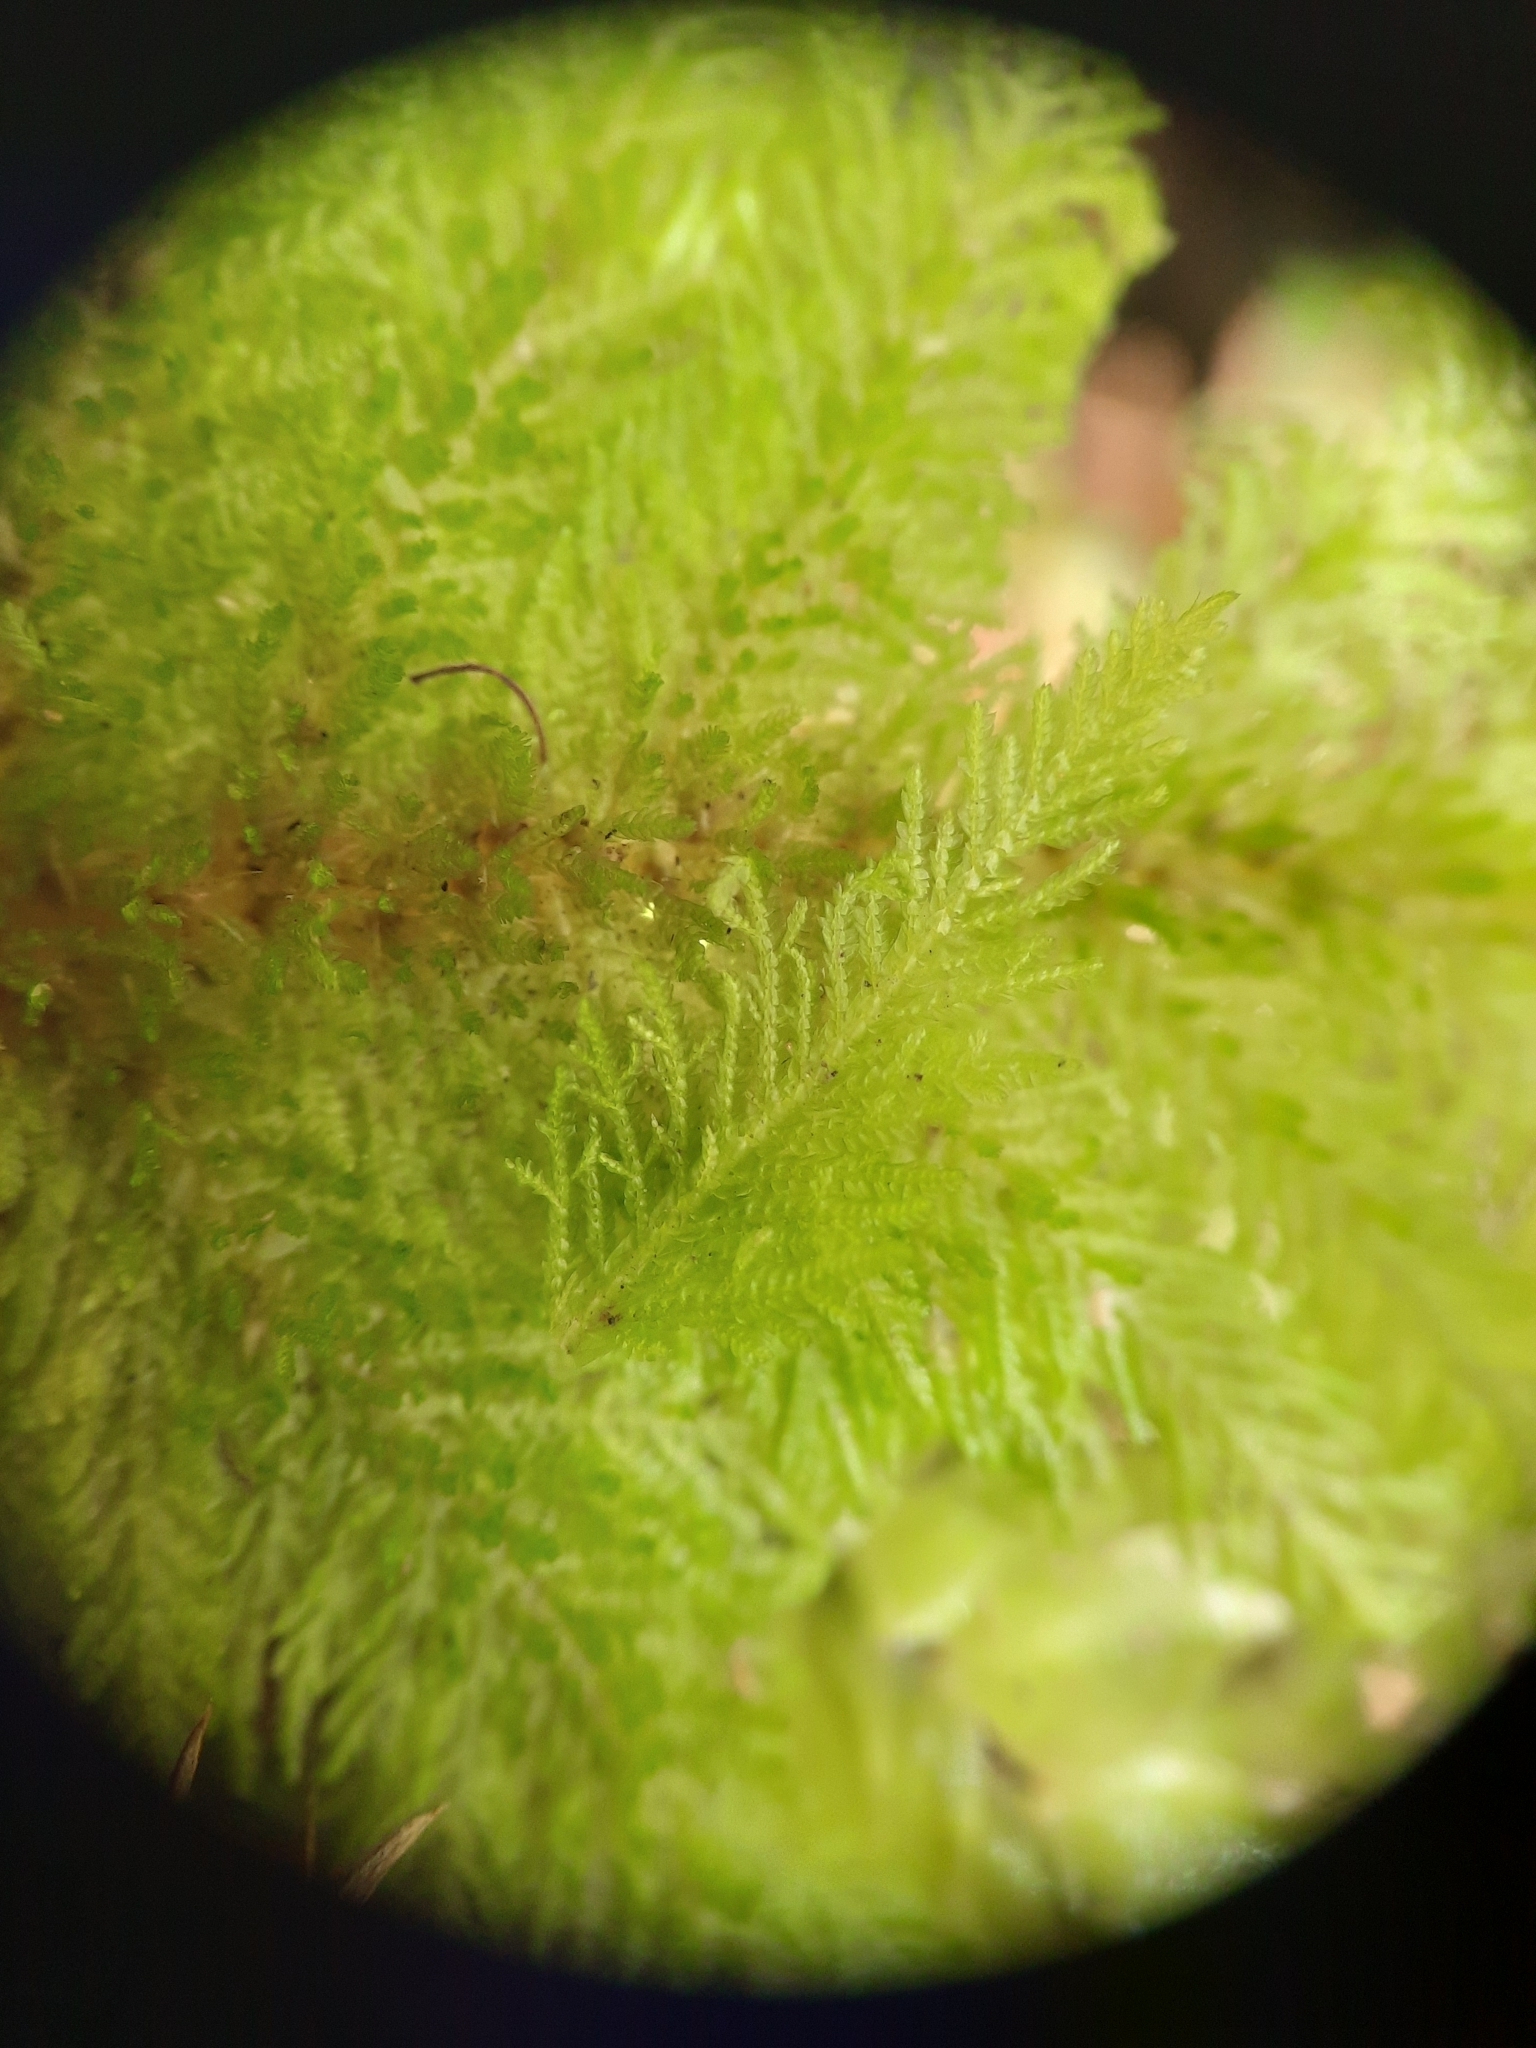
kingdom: Plantae
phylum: Bryophyta
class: Bryopsida
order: Hypopterygiales
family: Hypopterygiaceae
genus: Dendrohypopterygium
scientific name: Dendrohypopterygium filiculiforme
